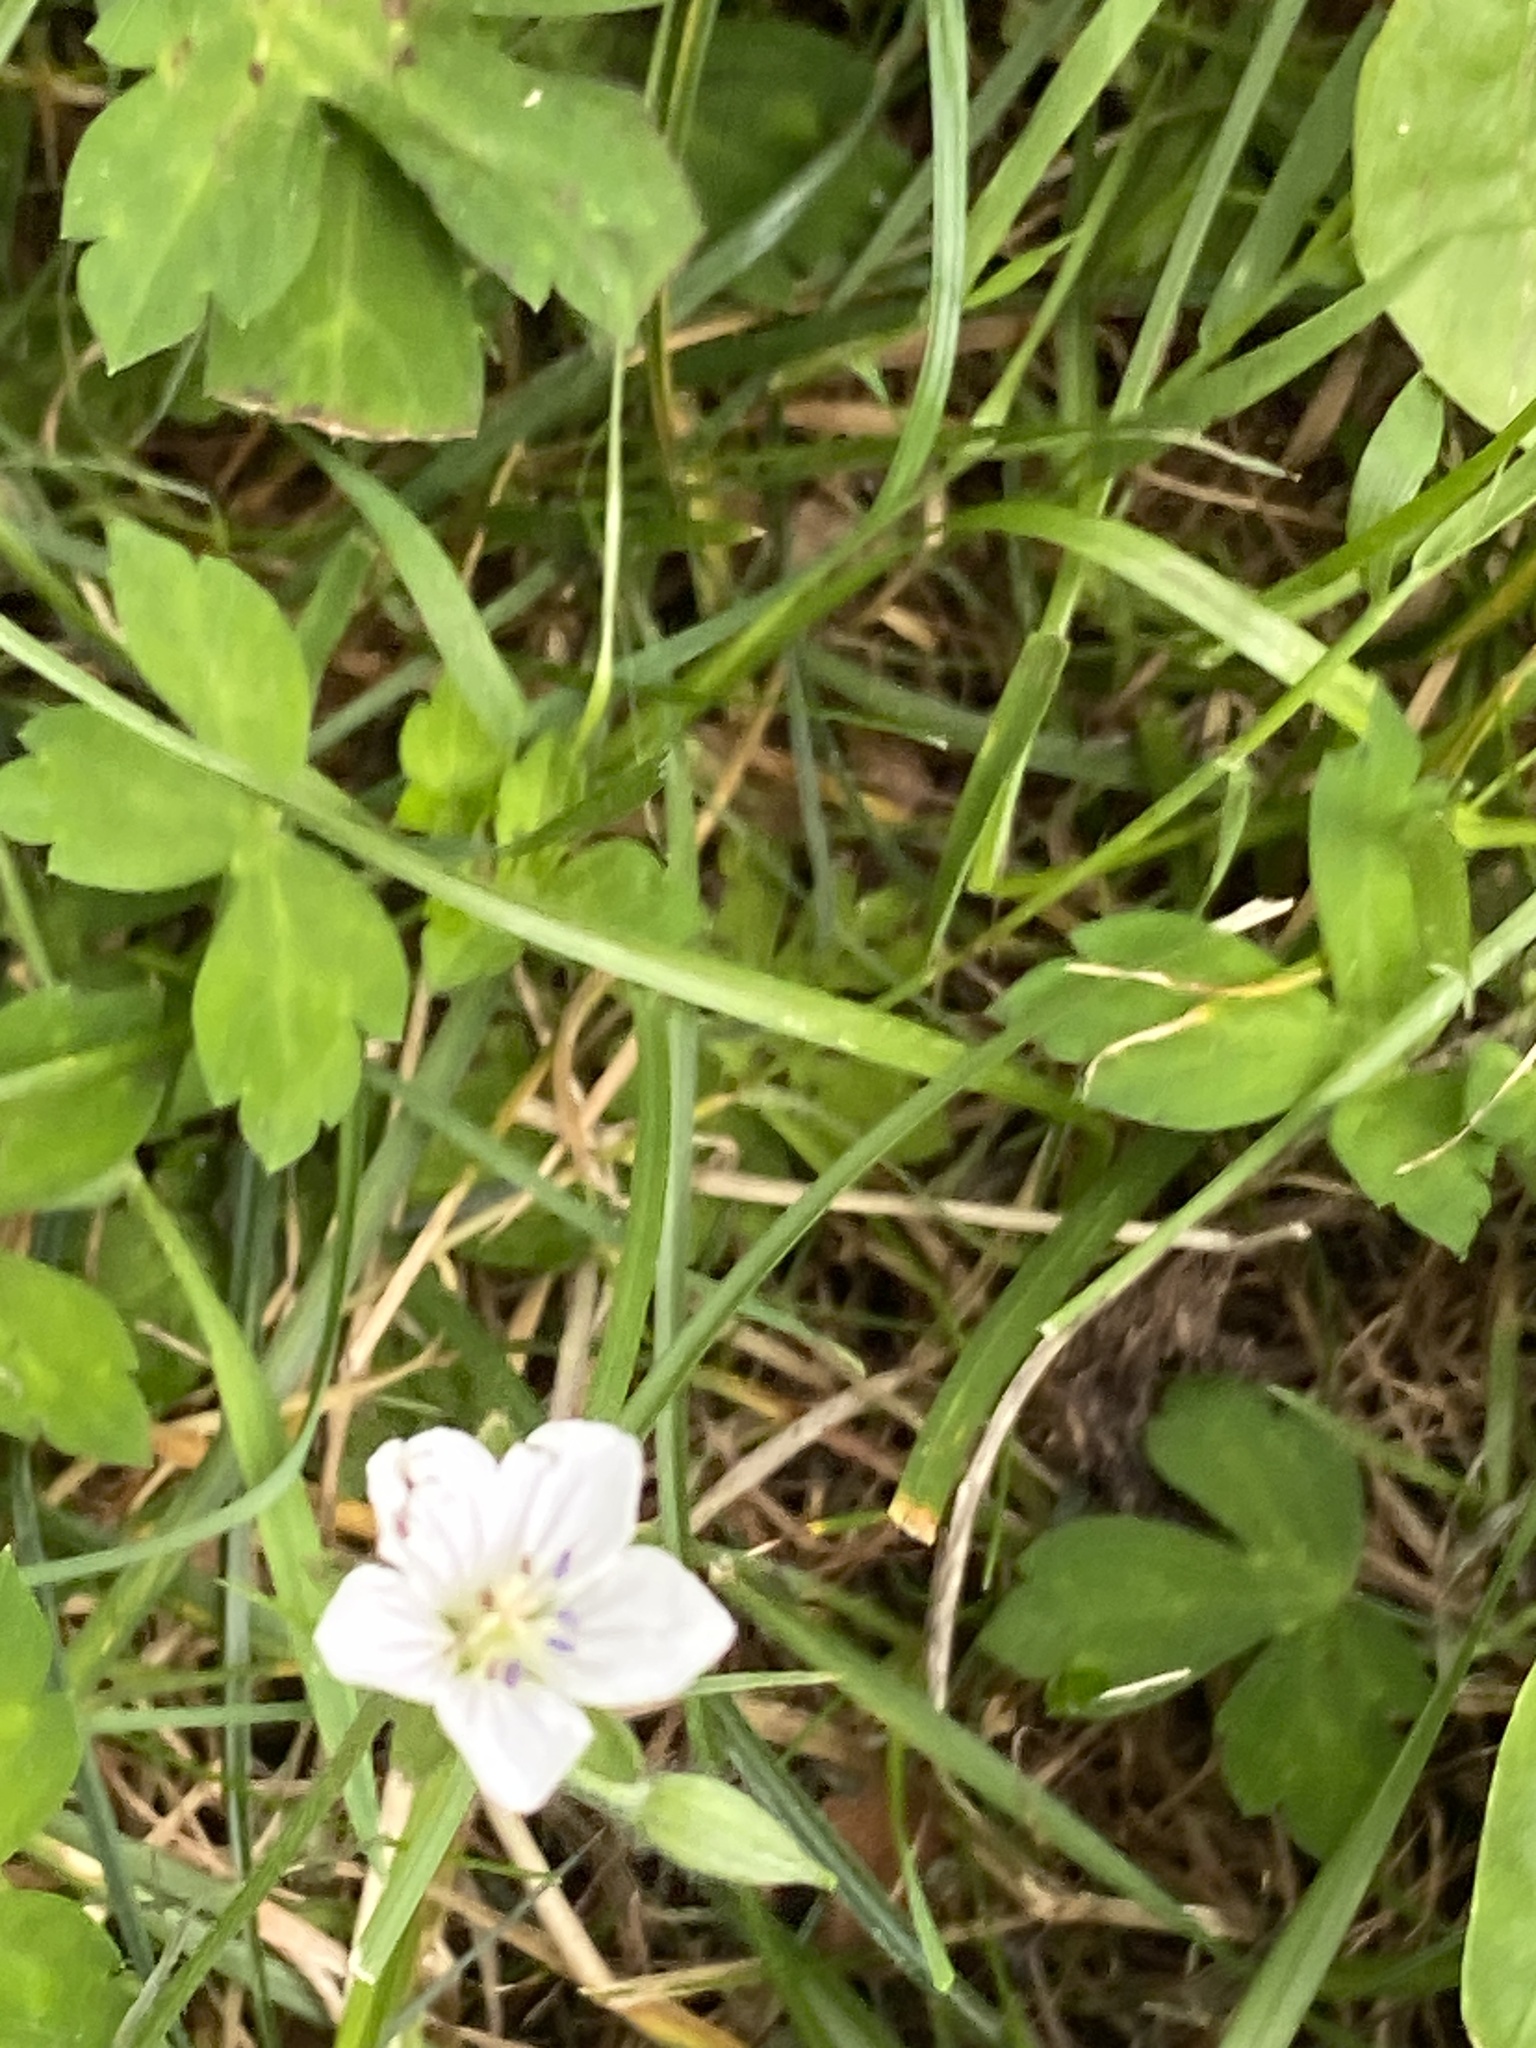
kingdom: Plantae
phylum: Tracheophyta
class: Magnoliopsida
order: Geraniales
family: Geraniaceae
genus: Geranium
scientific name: Geranium thunbergii
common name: Dewdrop crane's-bill
